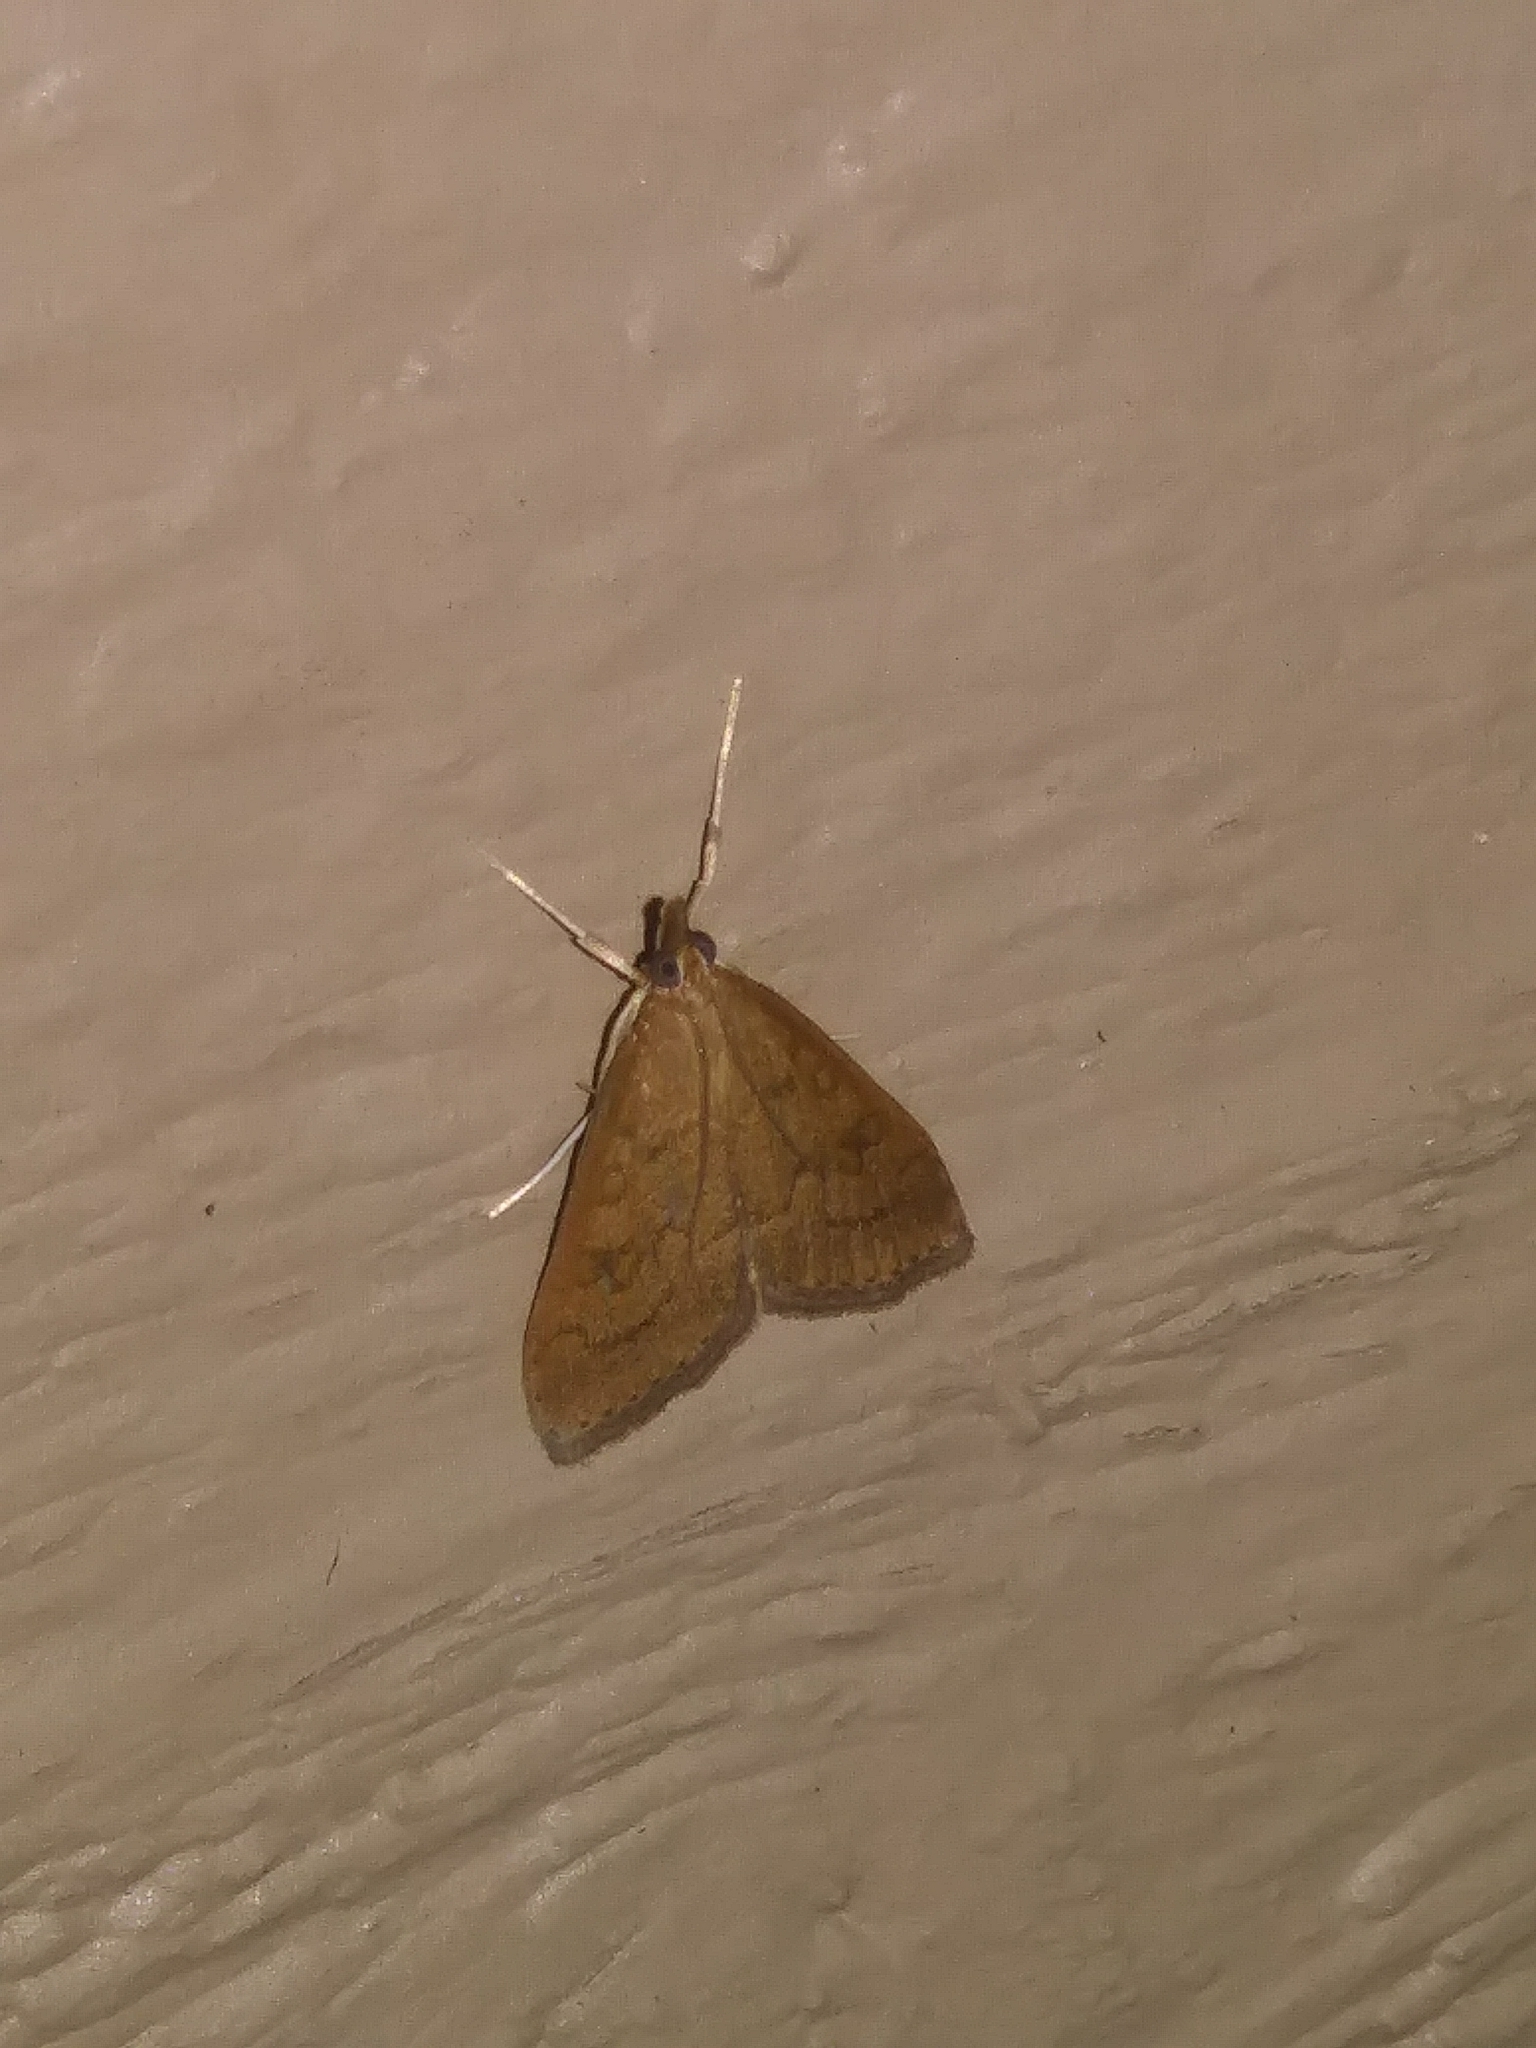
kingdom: Animalia
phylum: Arthropoda
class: Insecta
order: Lepidoptera
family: Crambidae
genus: Udea
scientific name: Udea rubigalis
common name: Celery leaftier moth
